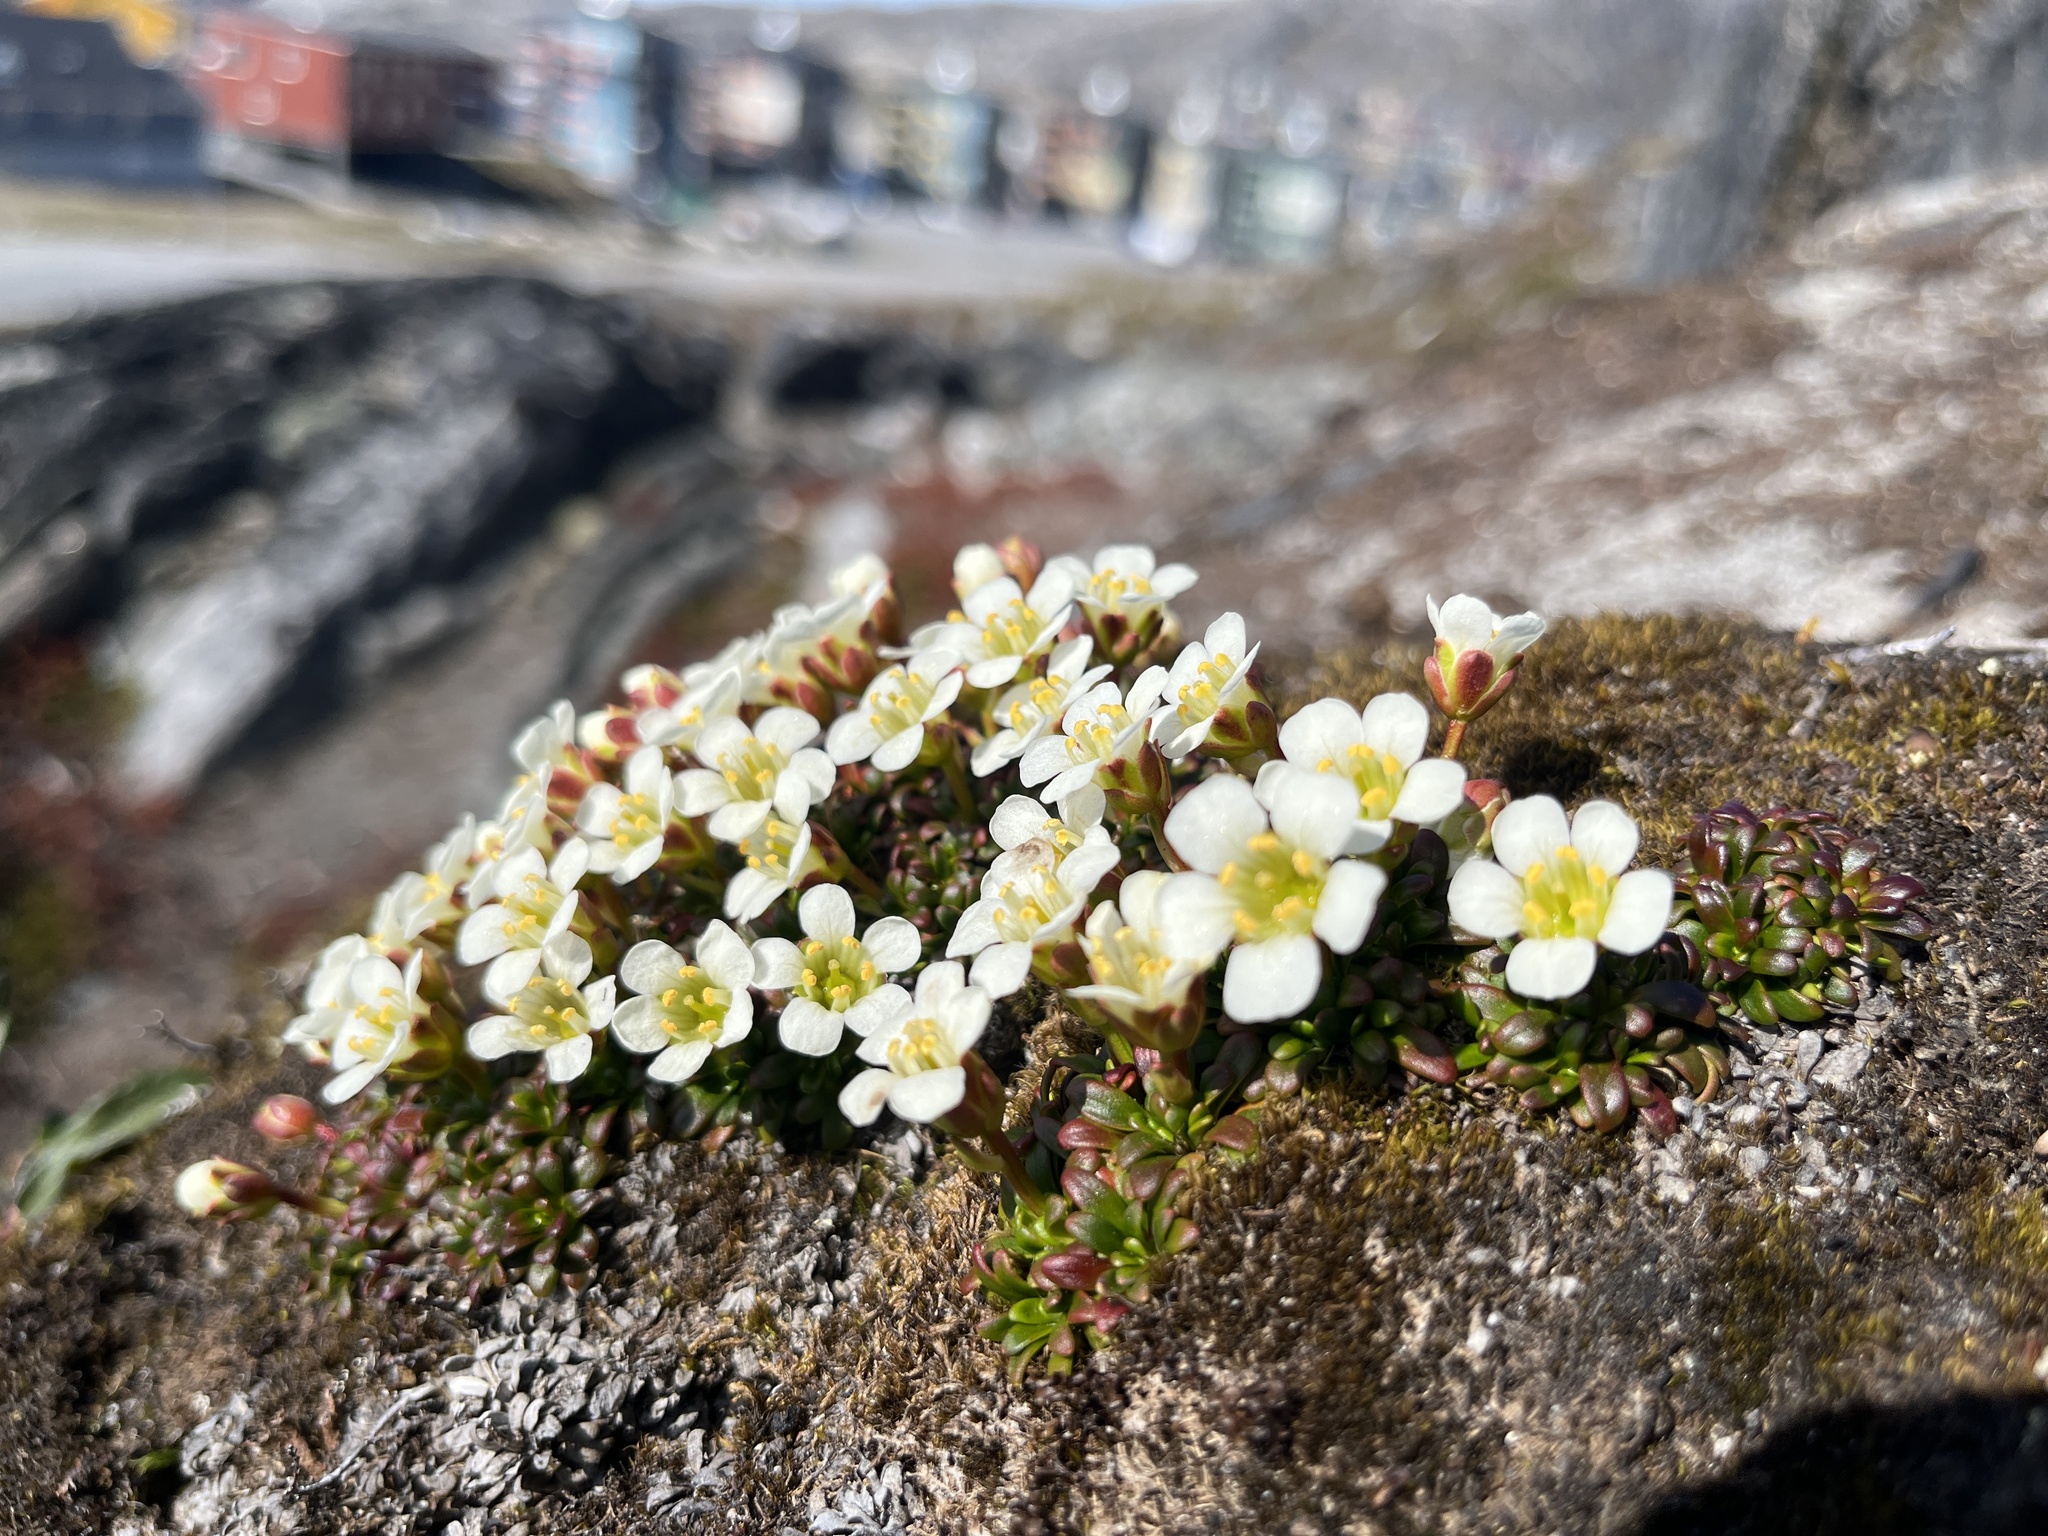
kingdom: Plantae
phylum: Tracheophyta
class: Magnoliopsida
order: Ericales
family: Diapensiaceae
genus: Diapensia
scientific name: Diapensia lapponica
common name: Diapensia
